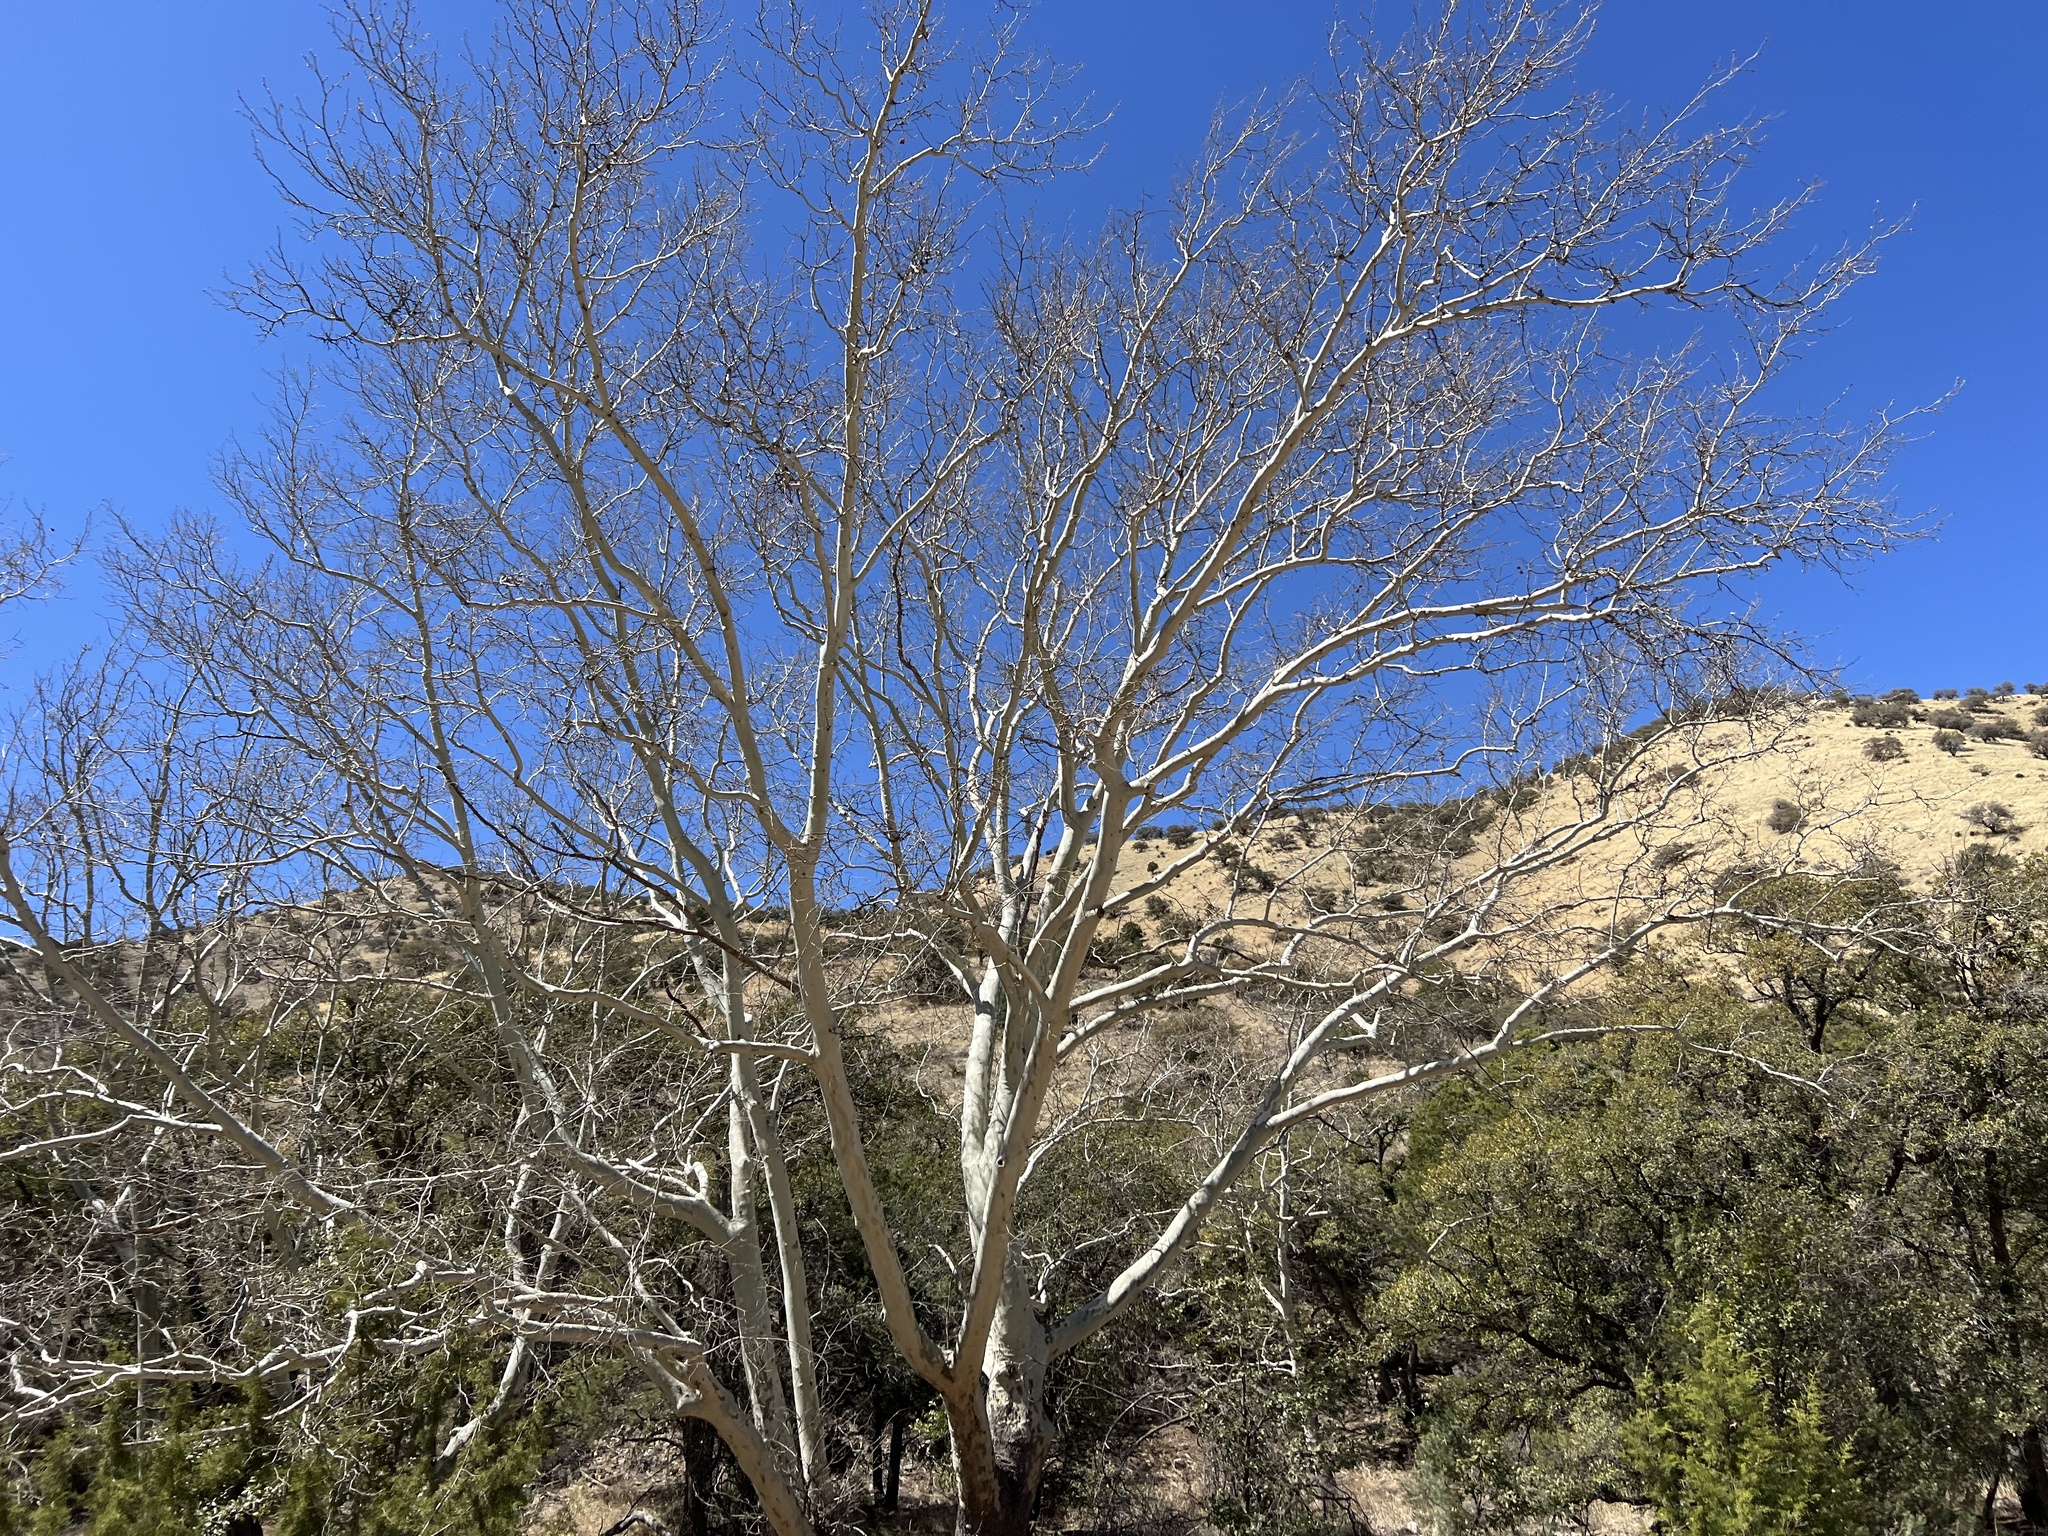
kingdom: Plantae
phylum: Tracheophyta
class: Magnoliopsida
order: Proteales
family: Platanaceae
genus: Platanus
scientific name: Platanus wrightii
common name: Arizona sycamore
